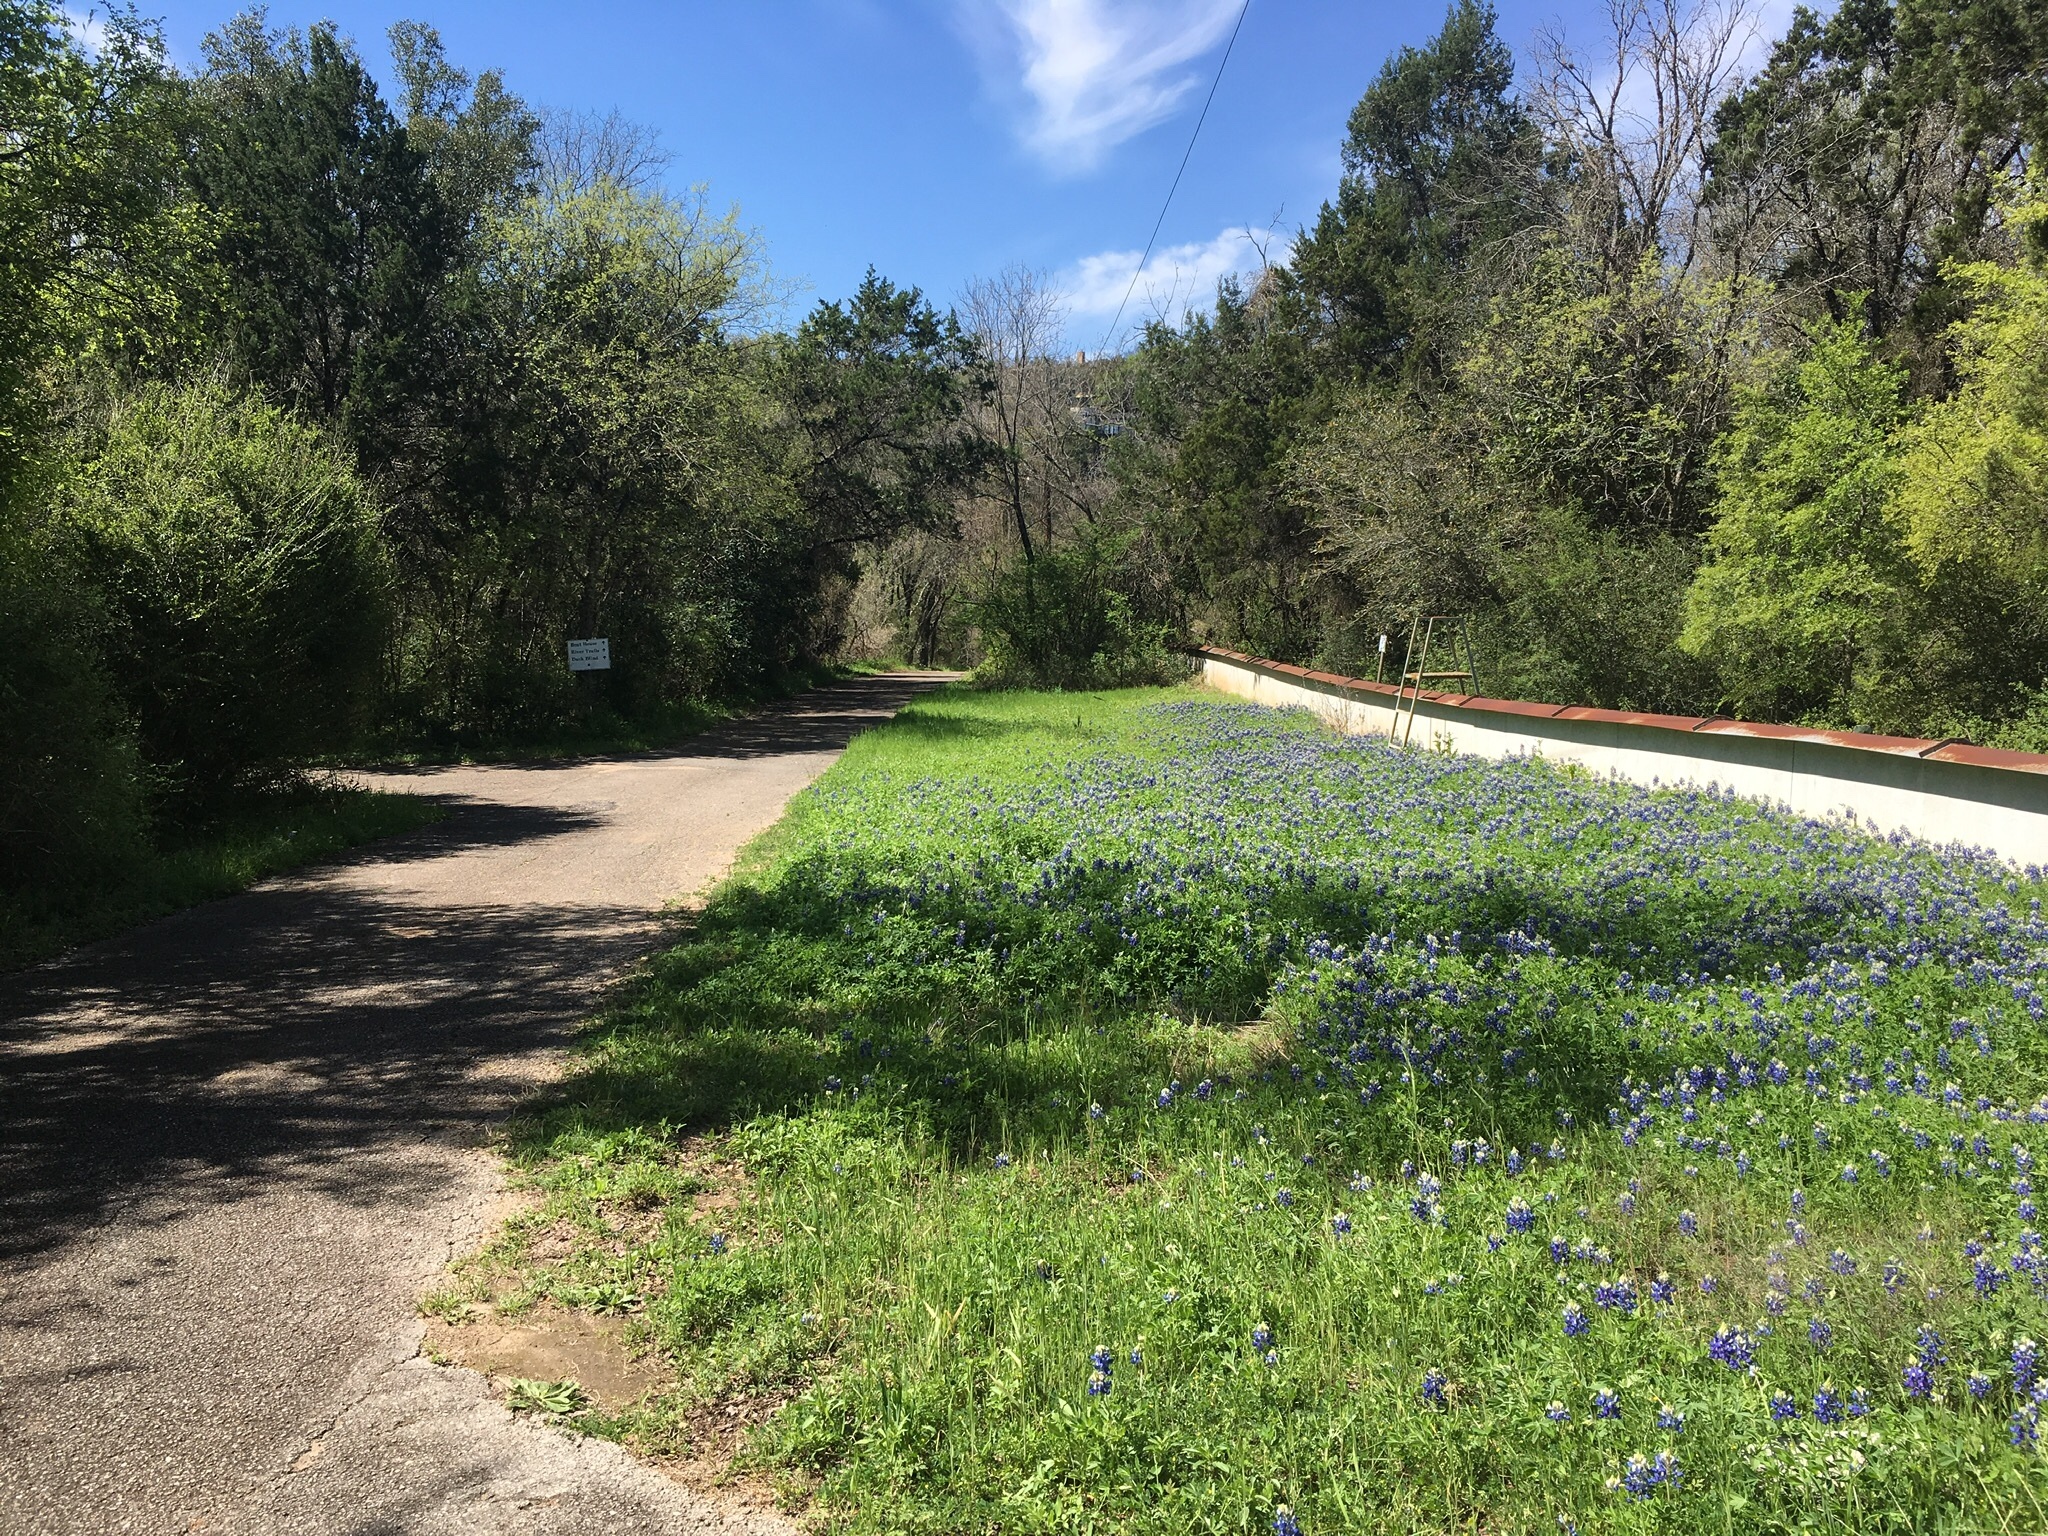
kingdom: Plantae
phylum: Tracheophyta
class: Magnoliopsida
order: Fabales
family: Fabaceae
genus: Lupinus
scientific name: Lupinus texensis
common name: Texas bluebonnet
